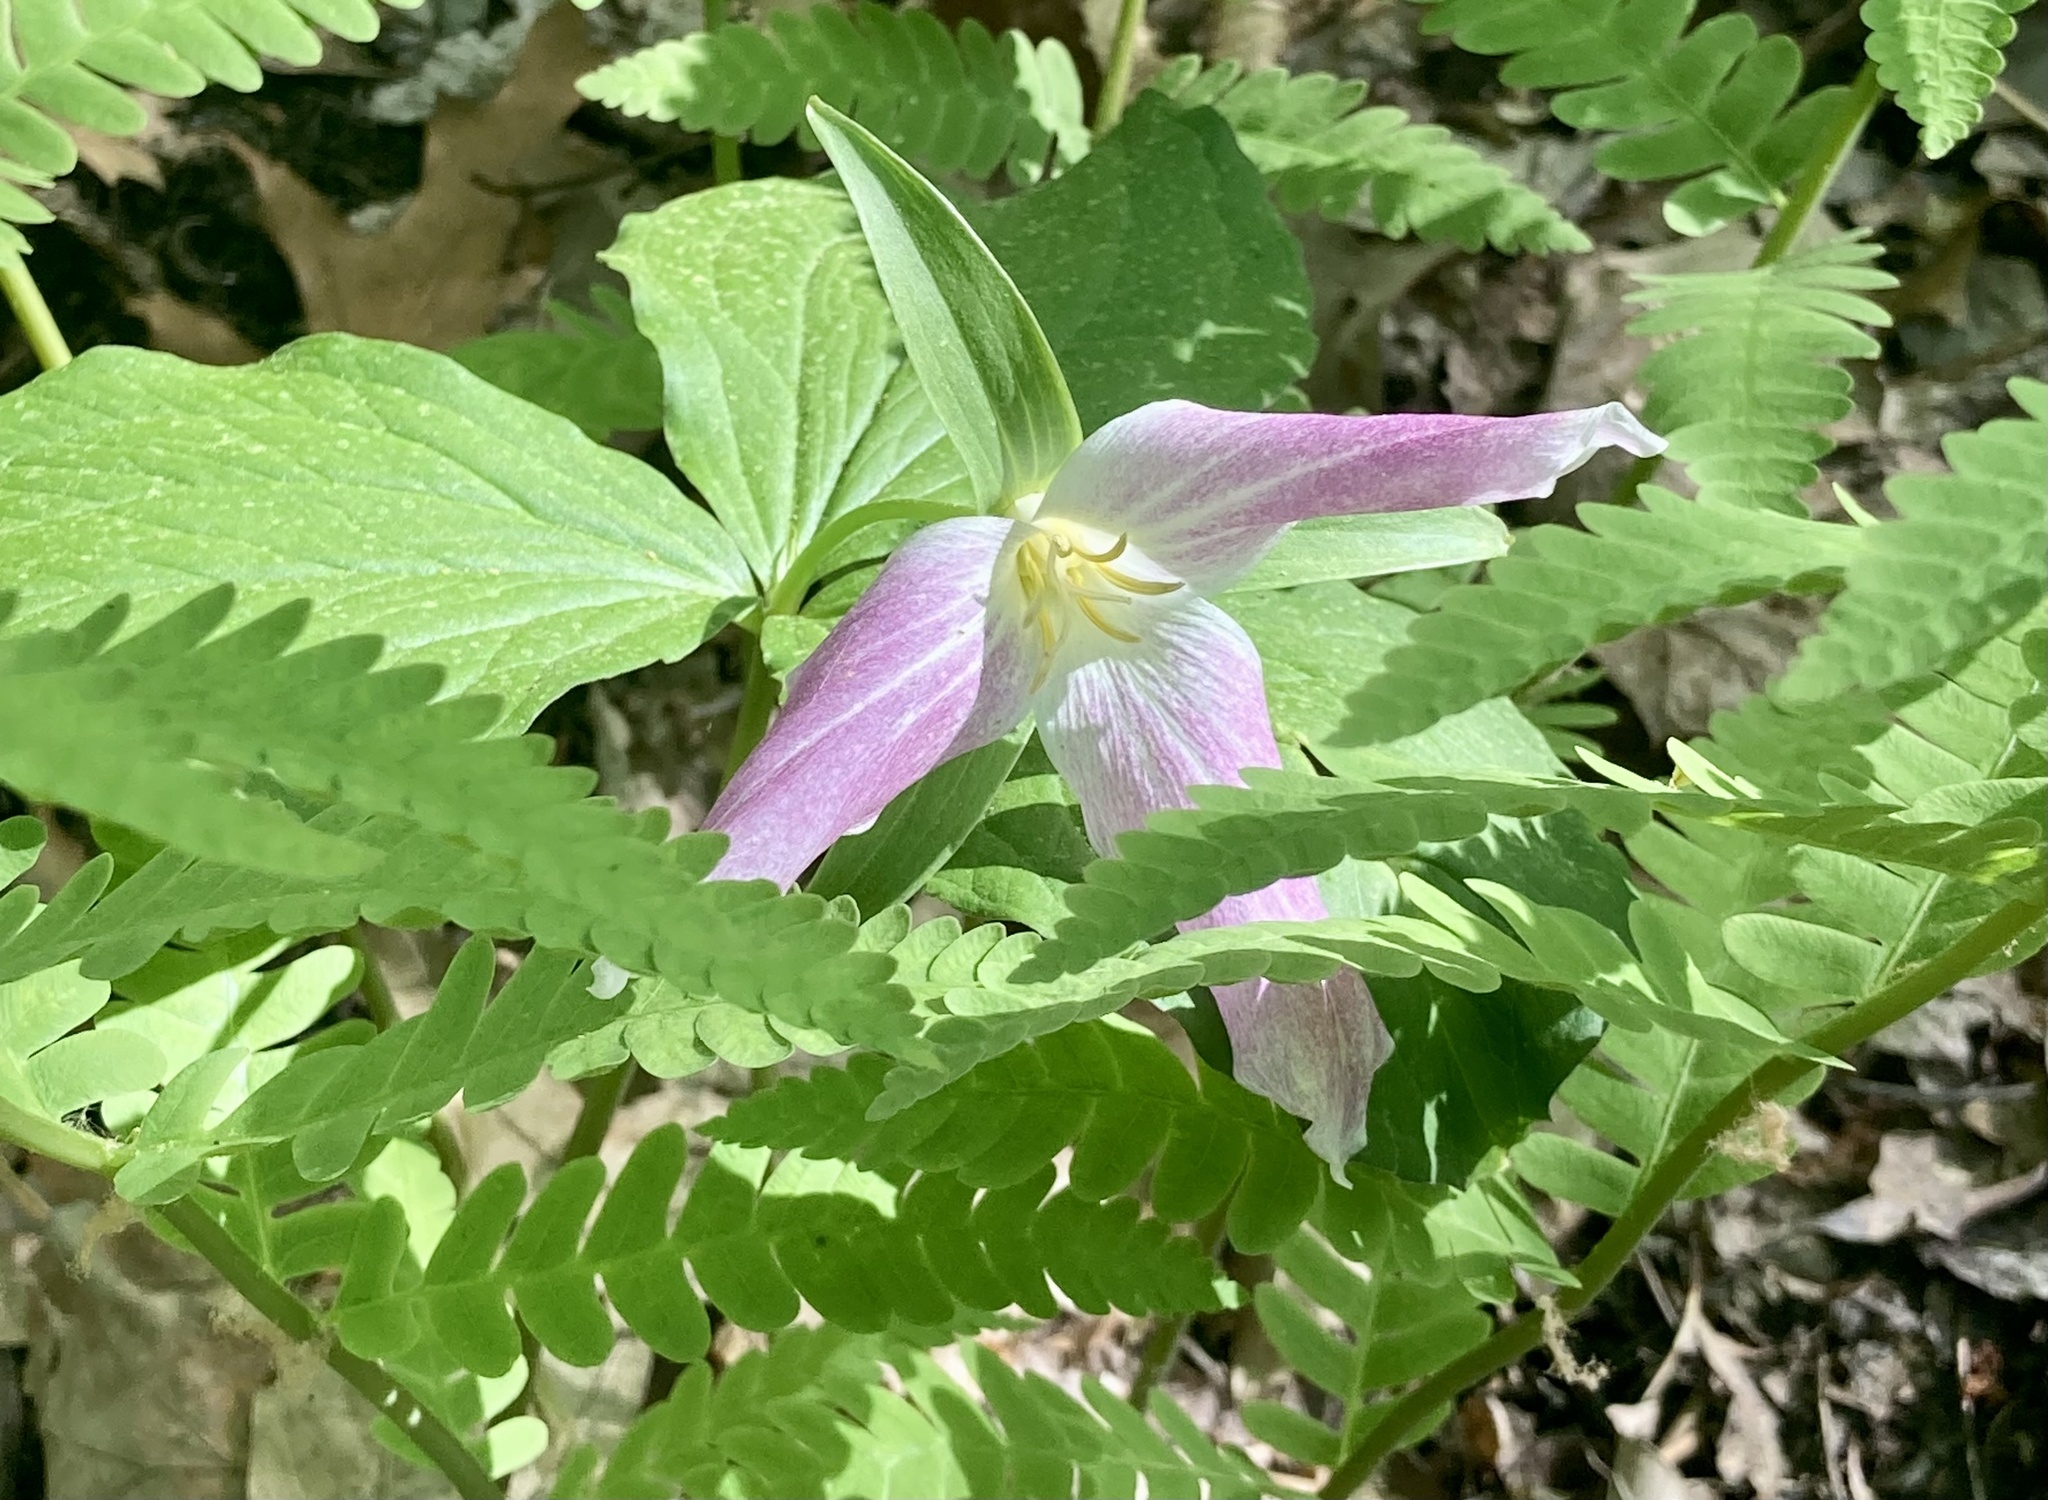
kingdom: Plantae
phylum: Tracheophyta
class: Liliopsida
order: Liliales
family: Melanthiaceae
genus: Trillium
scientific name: Trillium grandiflorum
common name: Great white trillium
